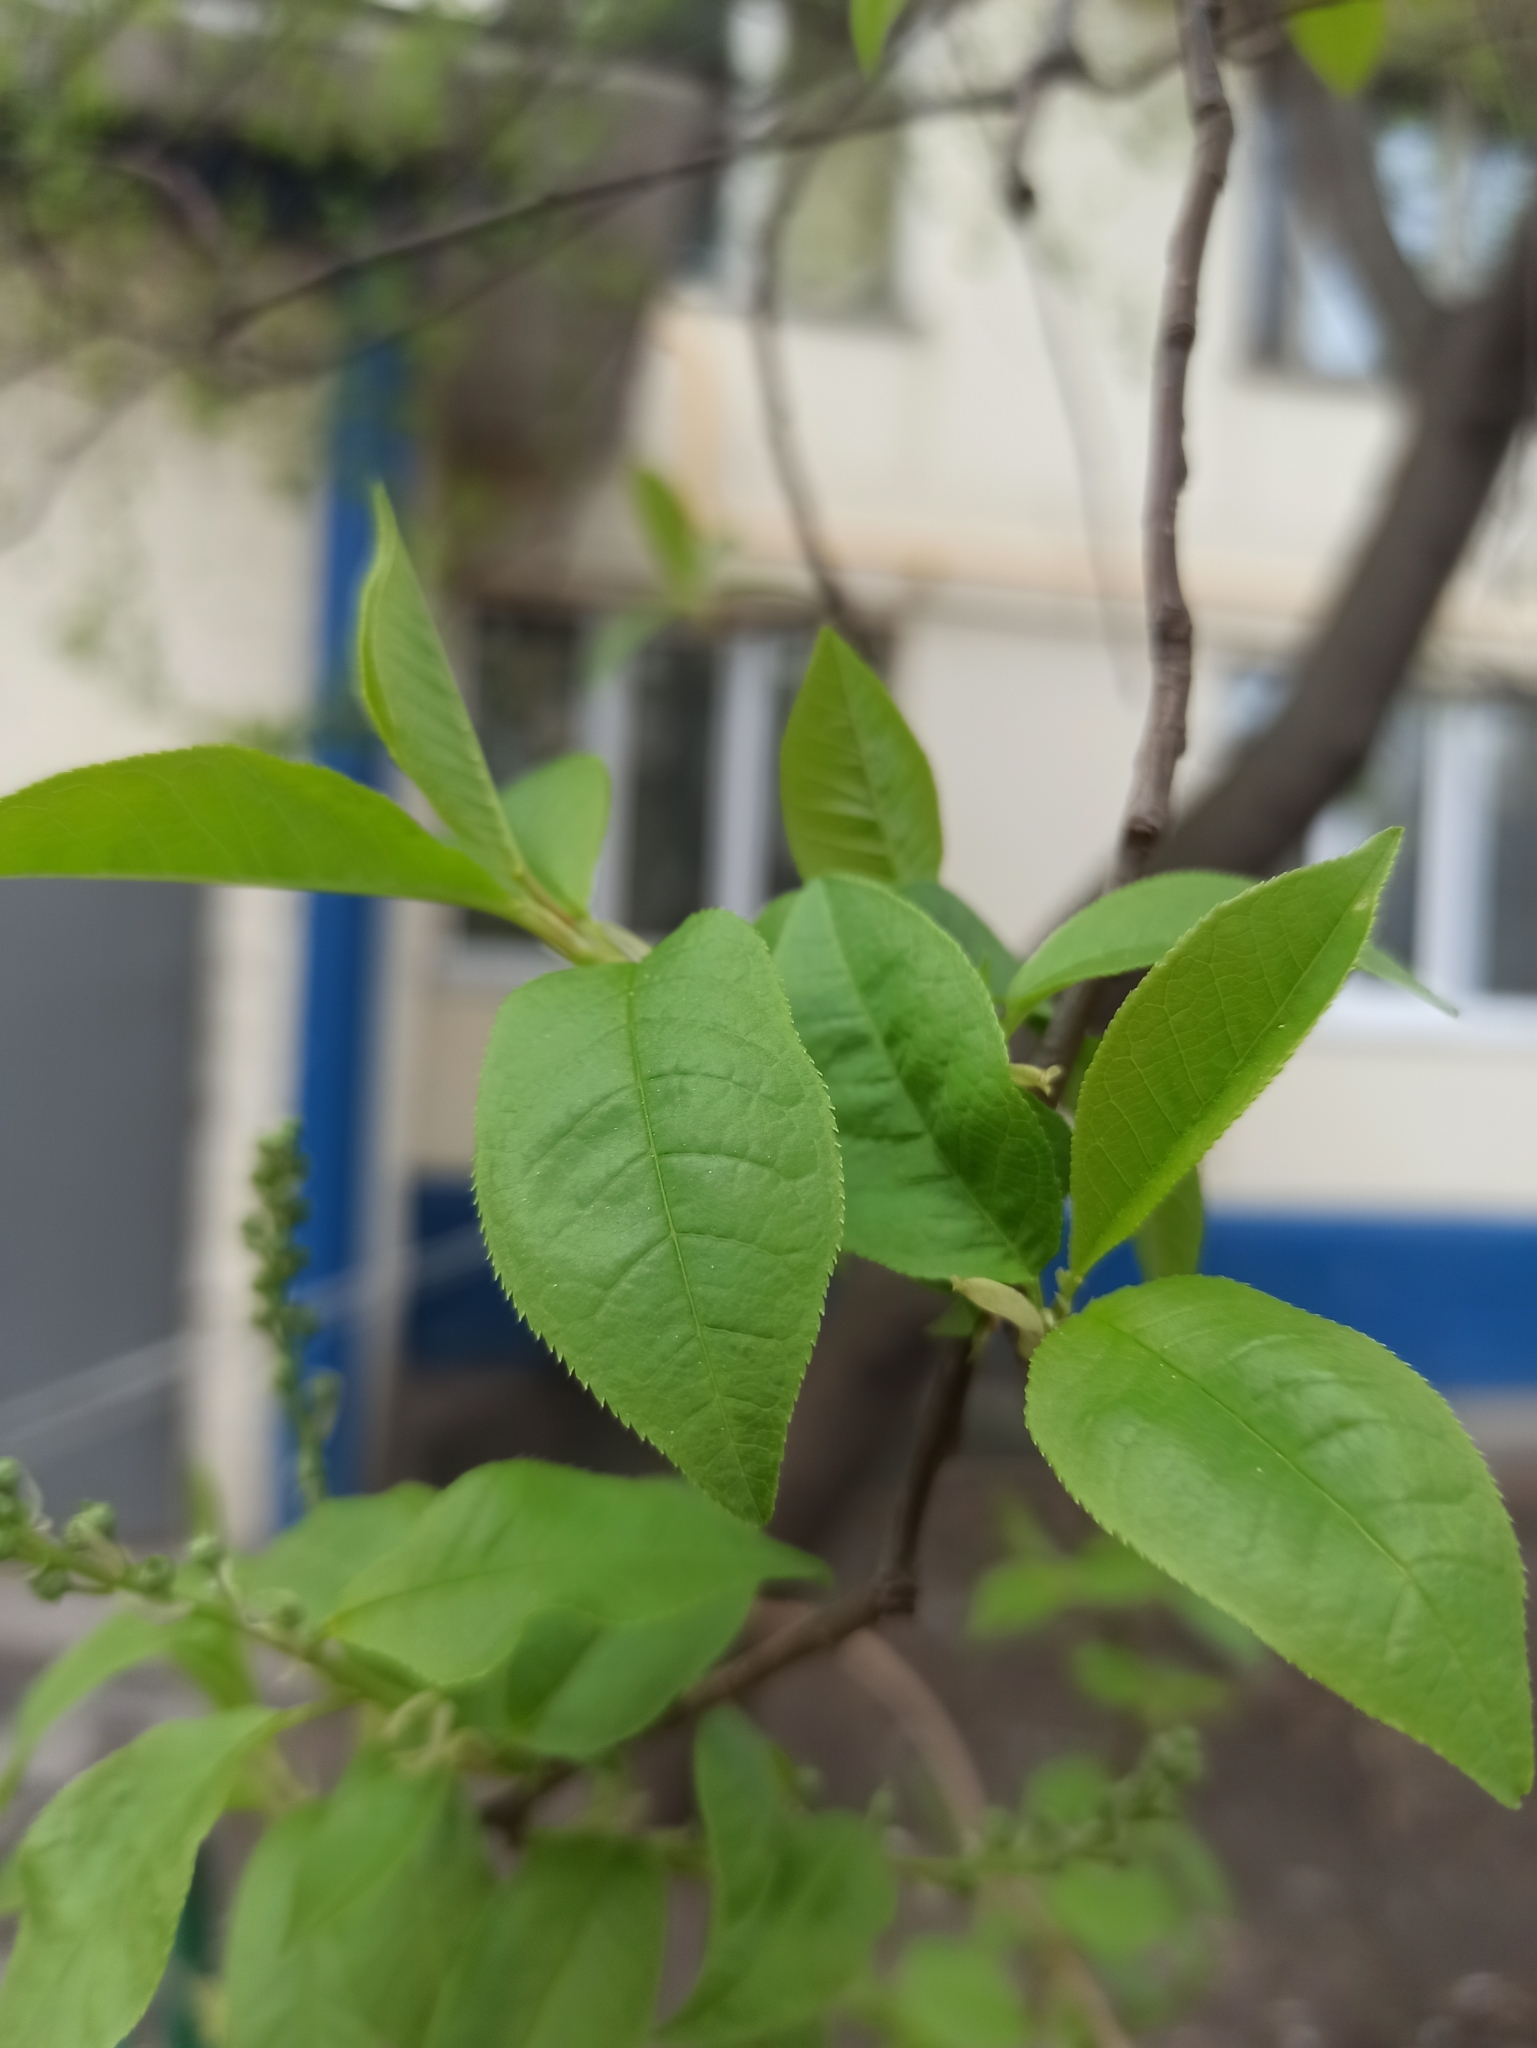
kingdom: Plantae
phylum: Tracheophyta
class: Magnoliopsida
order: Rosales
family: Rosaceae
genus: Prunus
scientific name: Prunus padus
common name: Bird cherry
